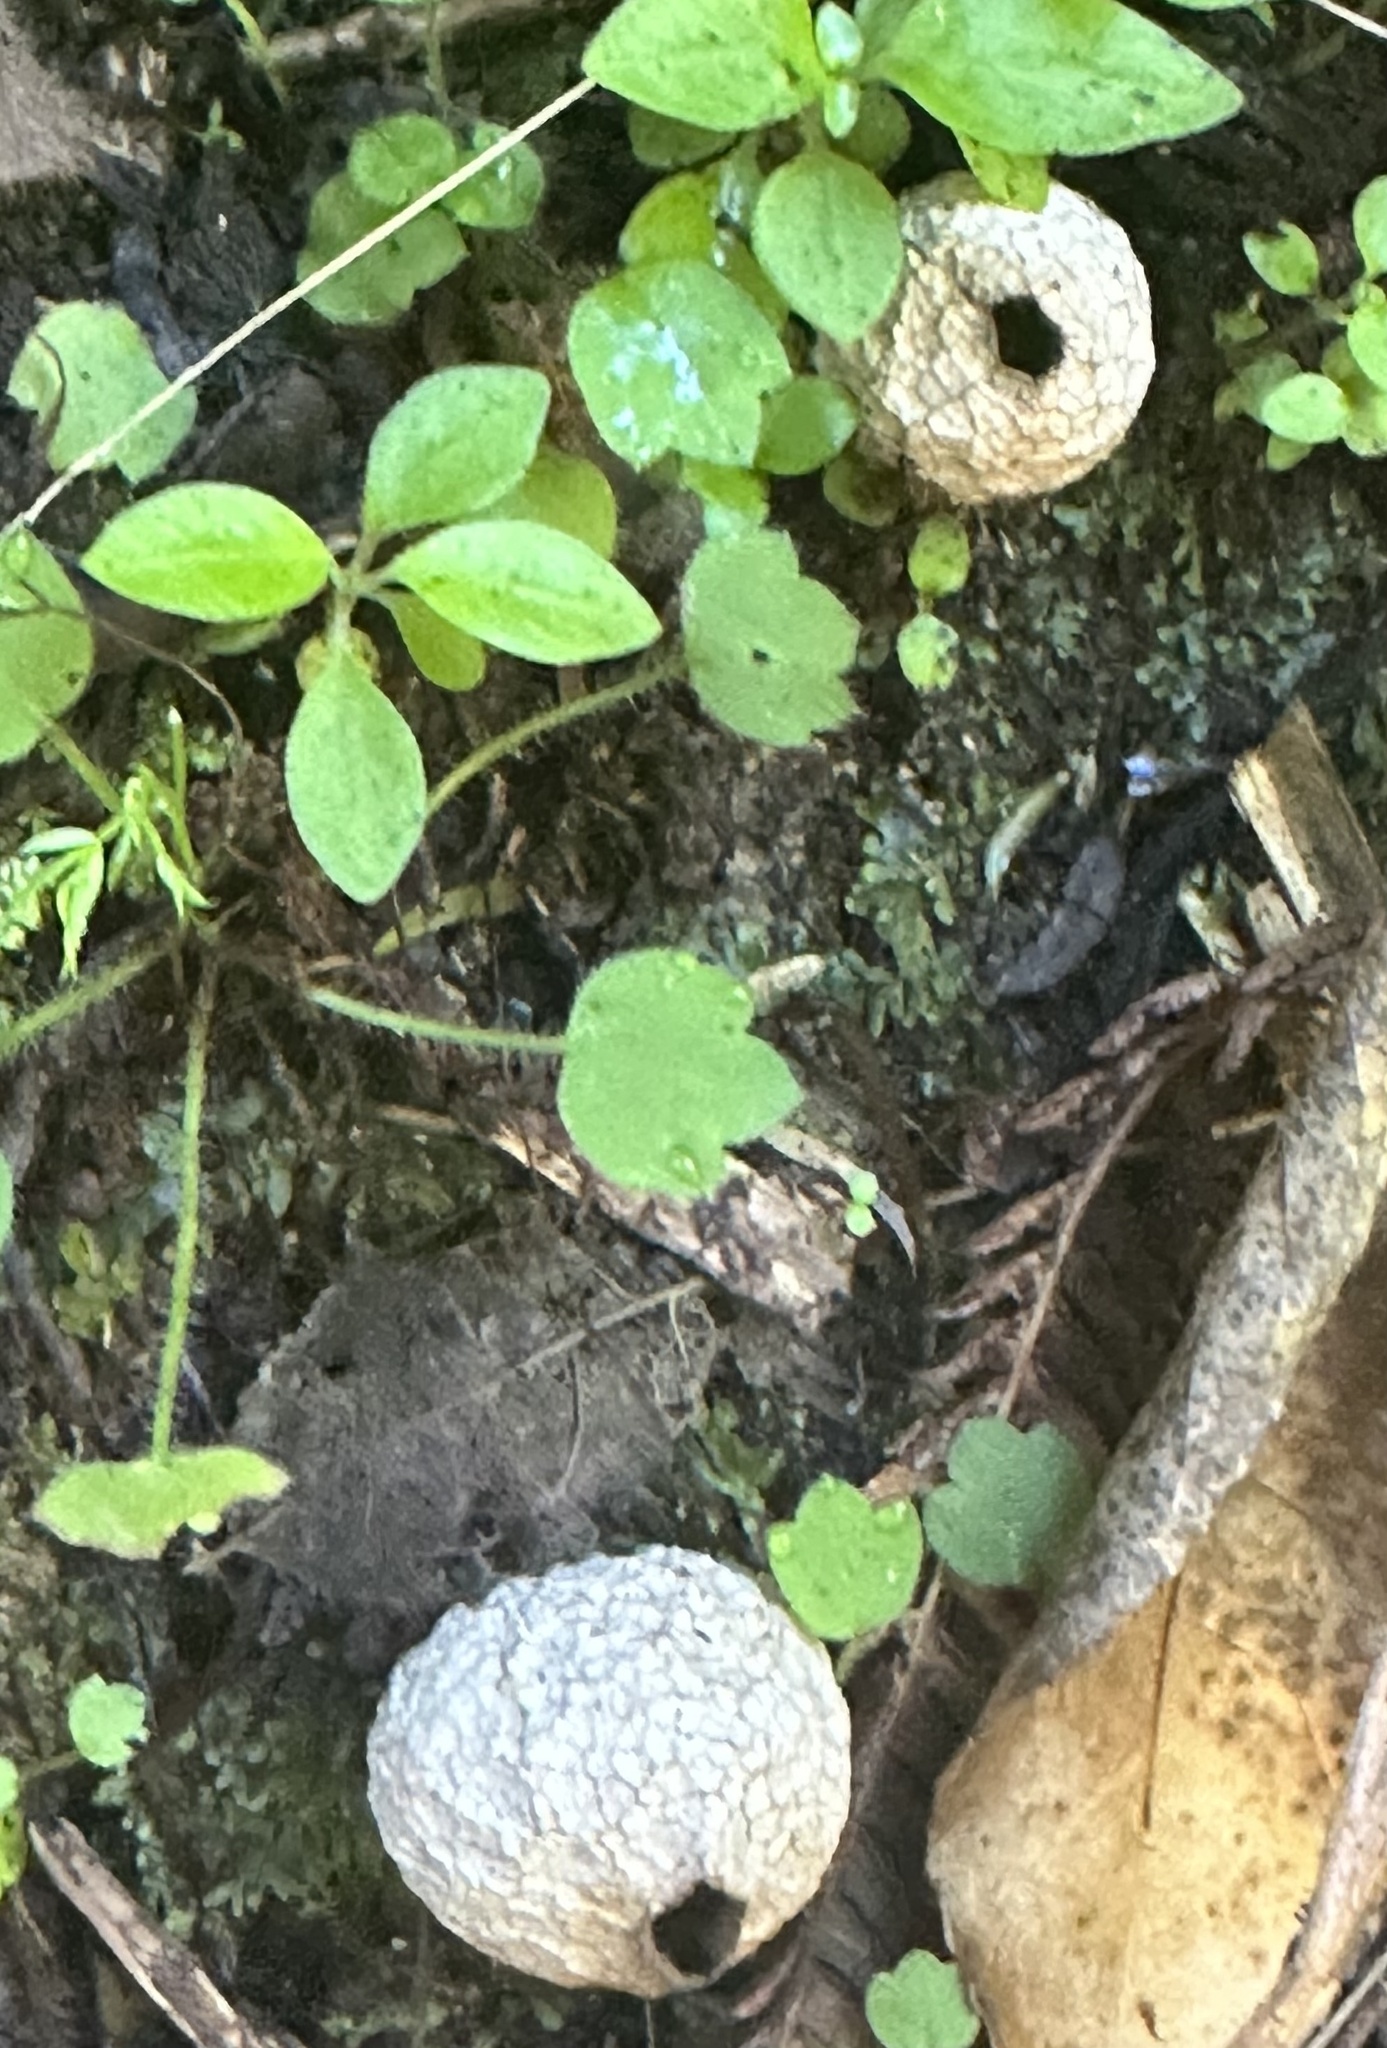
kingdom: Fungi
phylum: Basidiomycota
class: Agaricomycetes
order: Agaricales
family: Lycoperdaceae
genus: Lycoperdon
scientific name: Lycoperdon compactum
